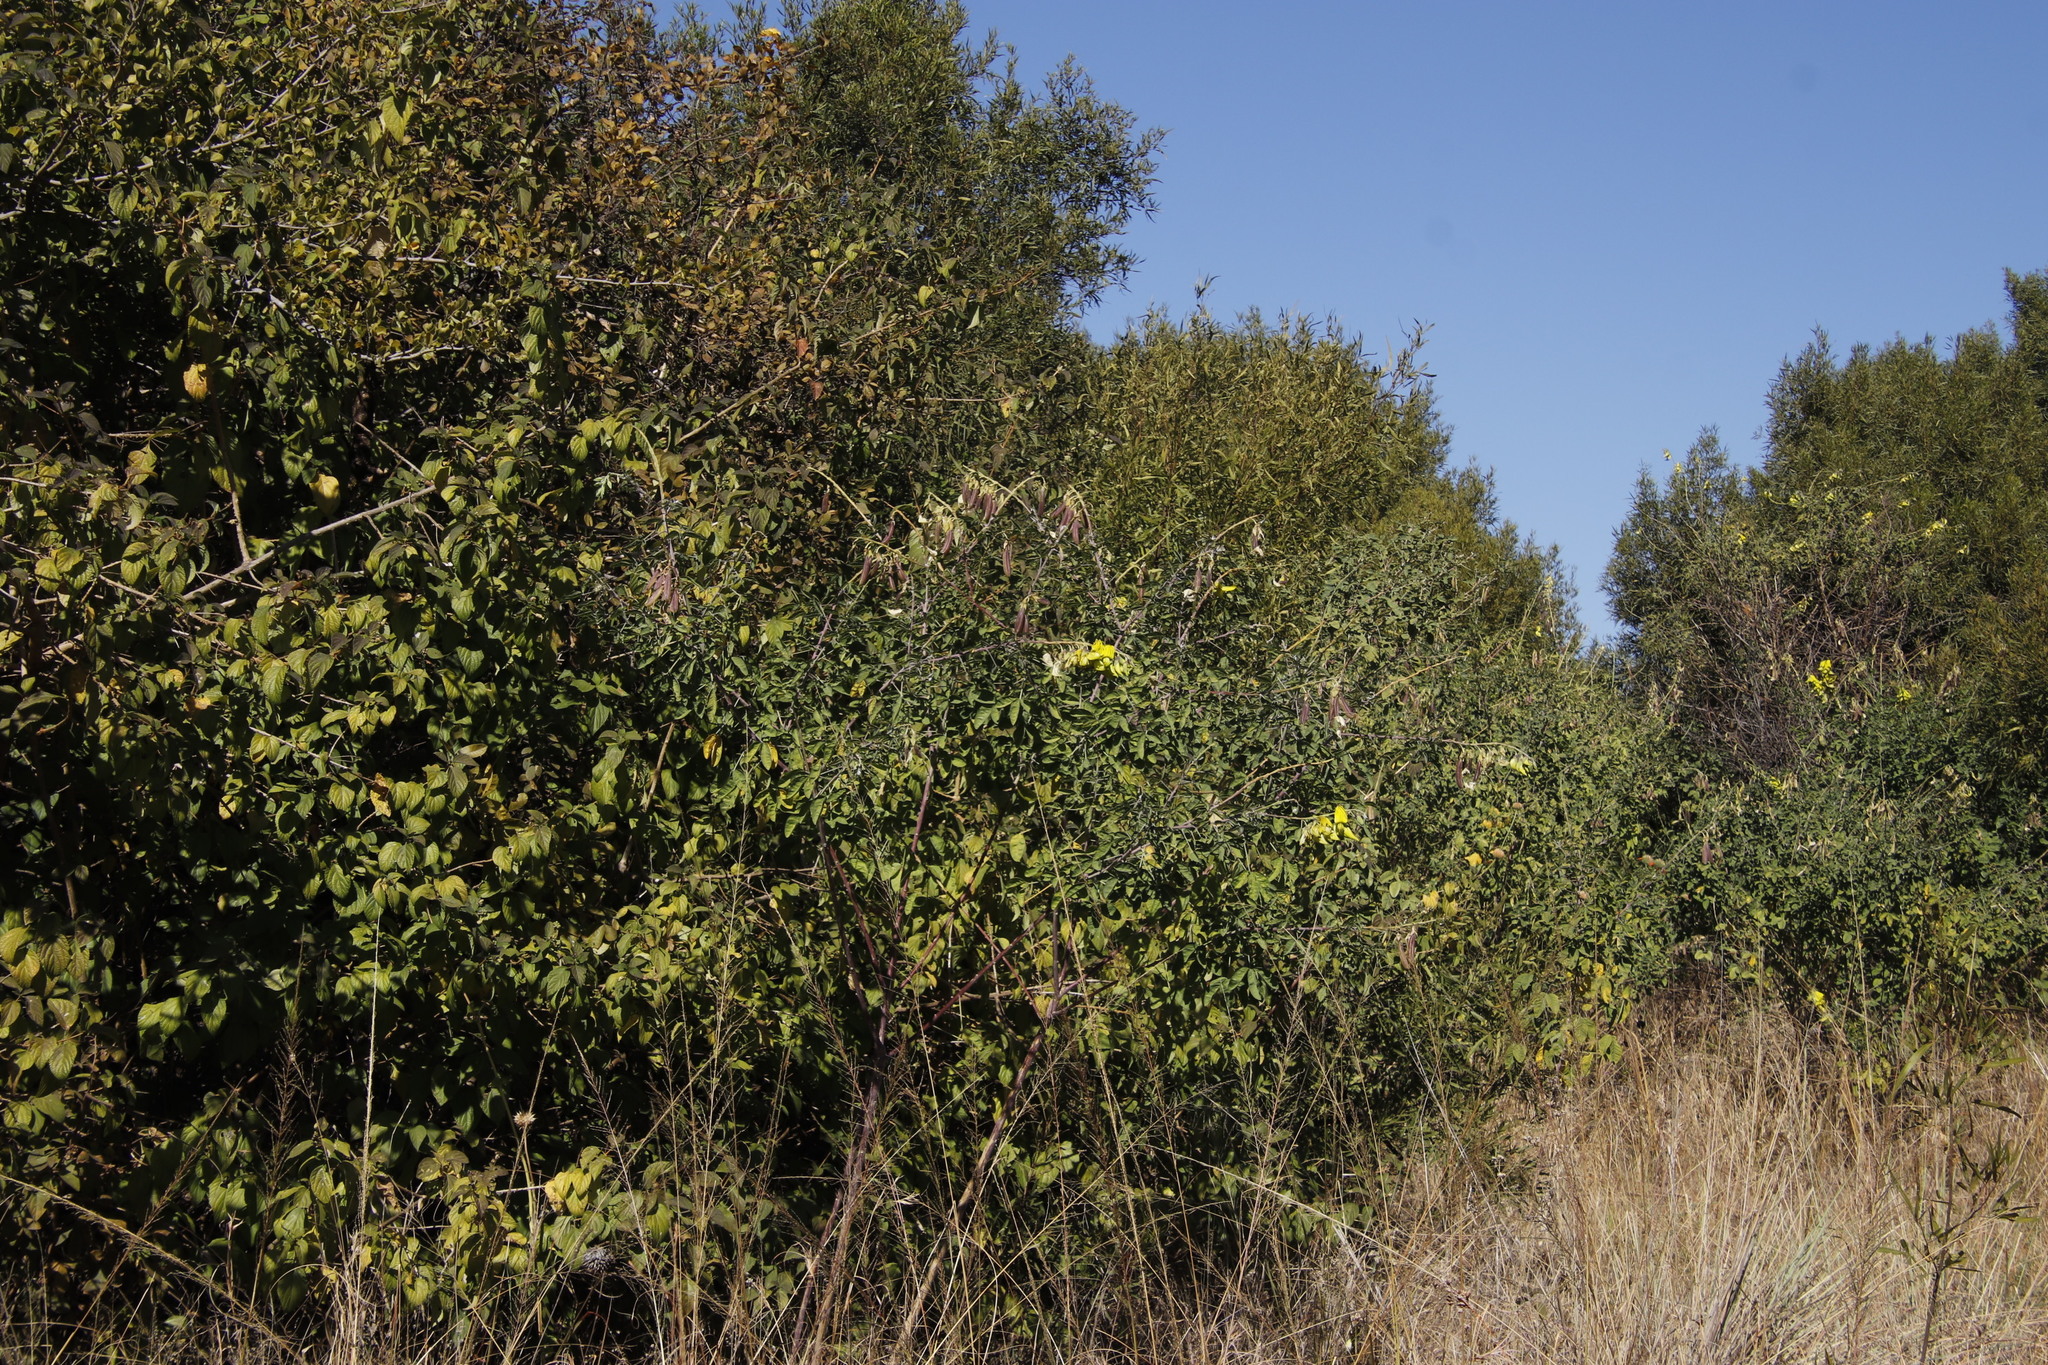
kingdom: Plantae
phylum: Tracheophyta
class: Magnoliopsida
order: Fabales
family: Fabaceae
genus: Crotalaria
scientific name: Crotalaria agatiflora
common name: Birdflower
